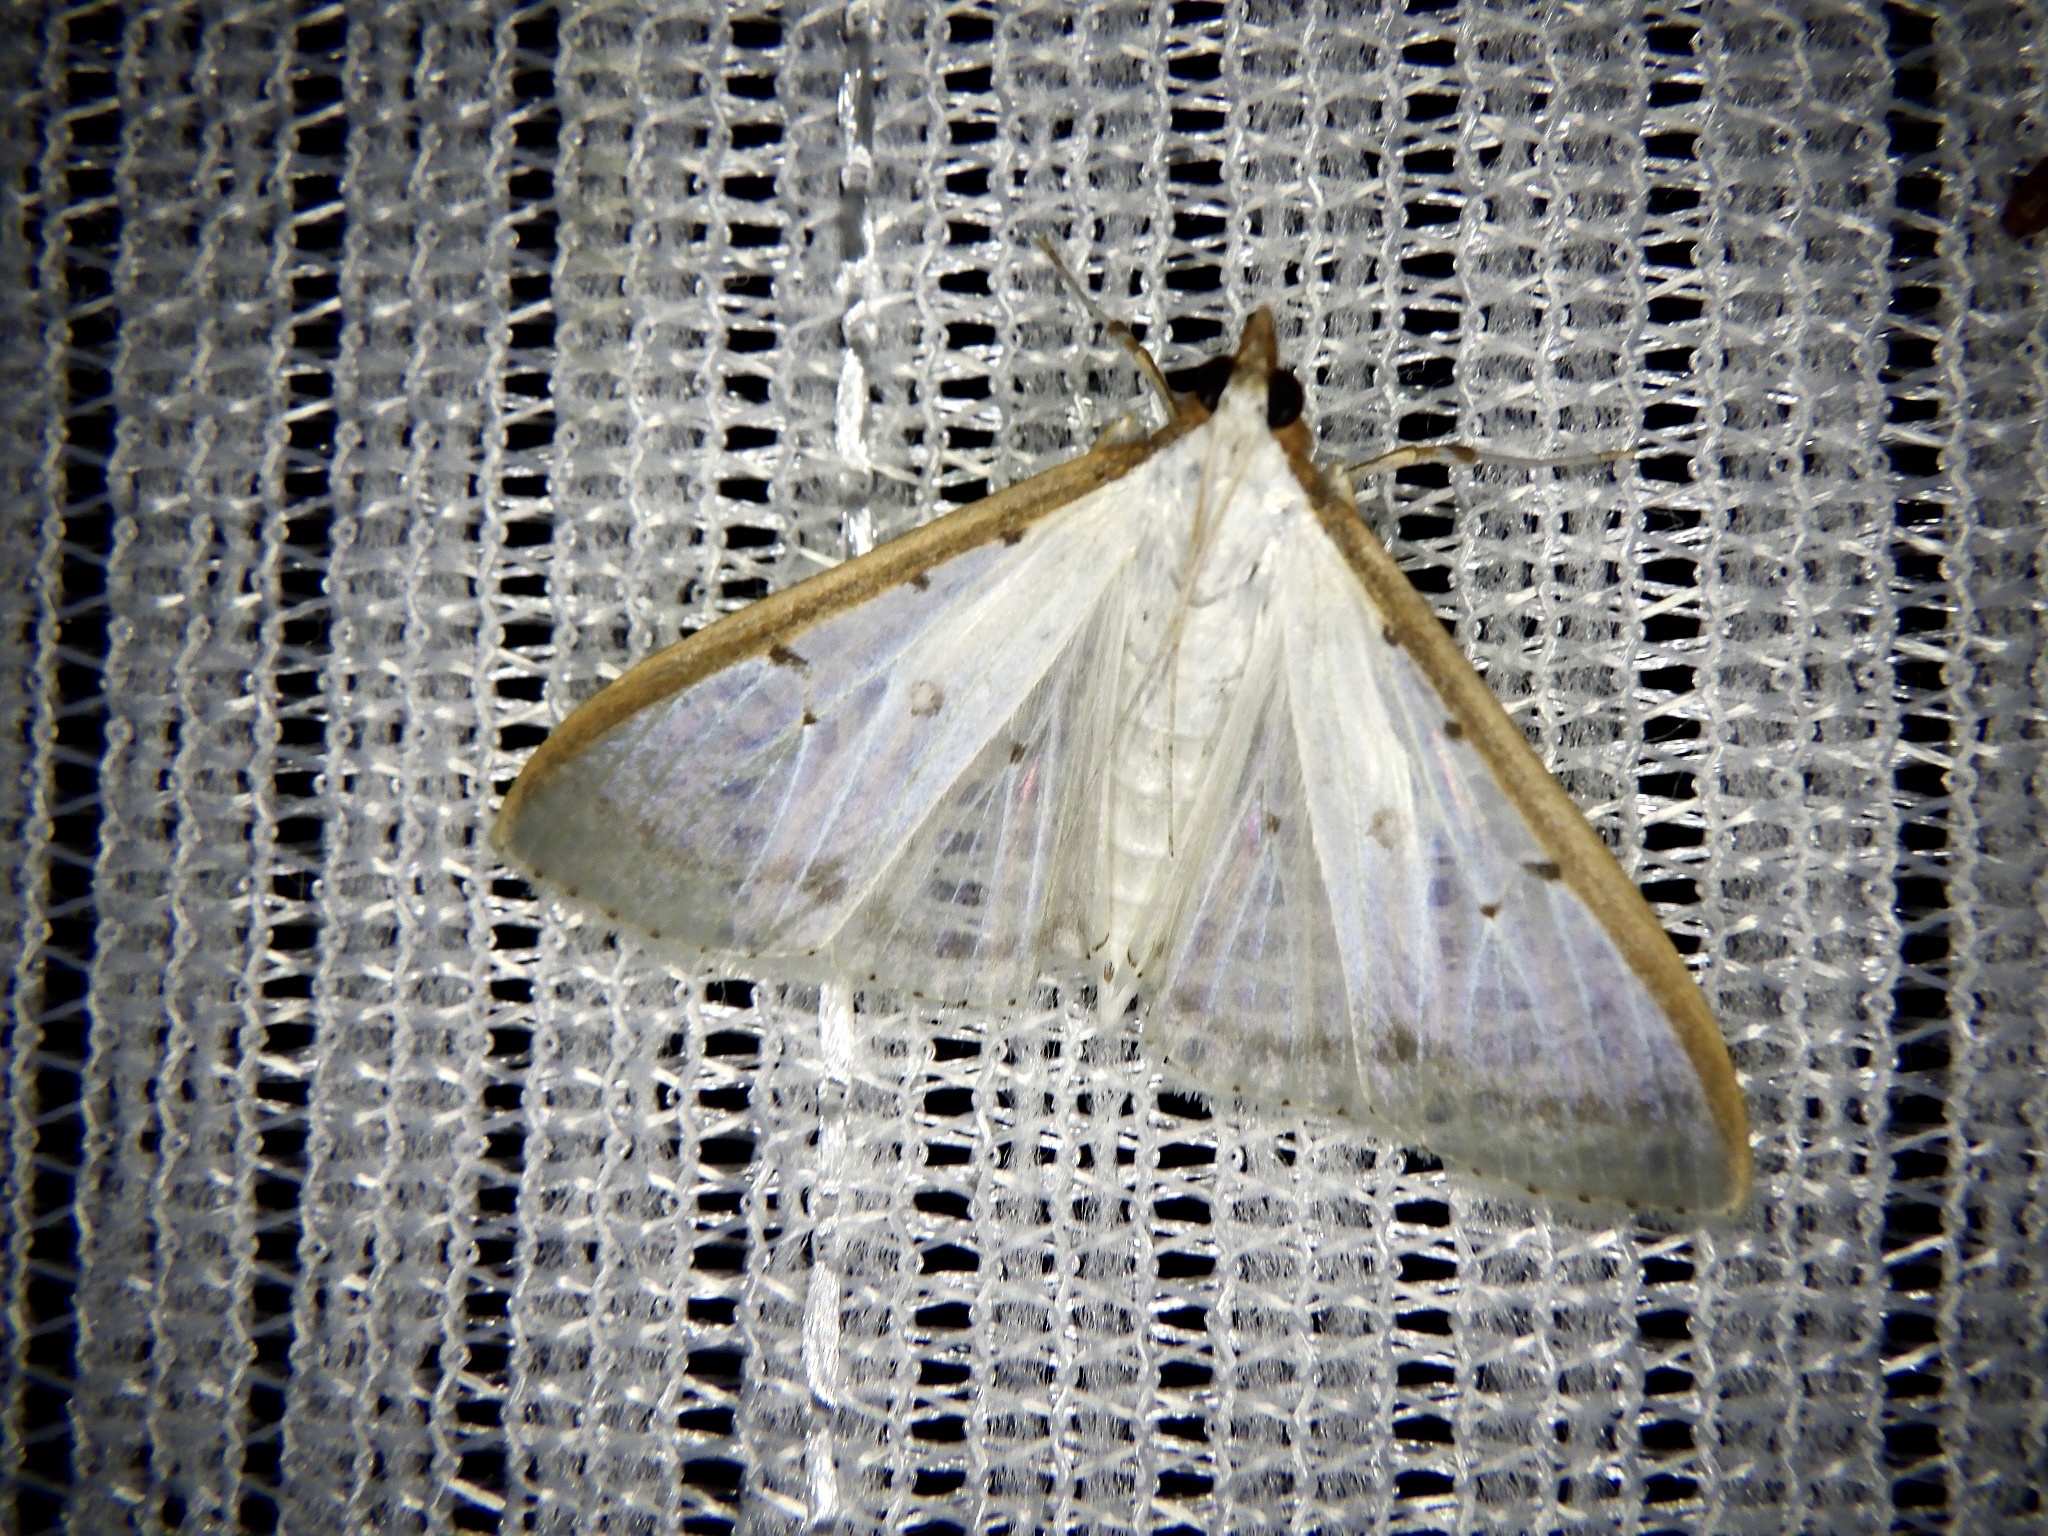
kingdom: Animalia
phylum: Arthropoda
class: Insecta
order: Lepidoptera
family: Crambidae
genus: Palpita
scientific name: Palpita nigropunctalis
